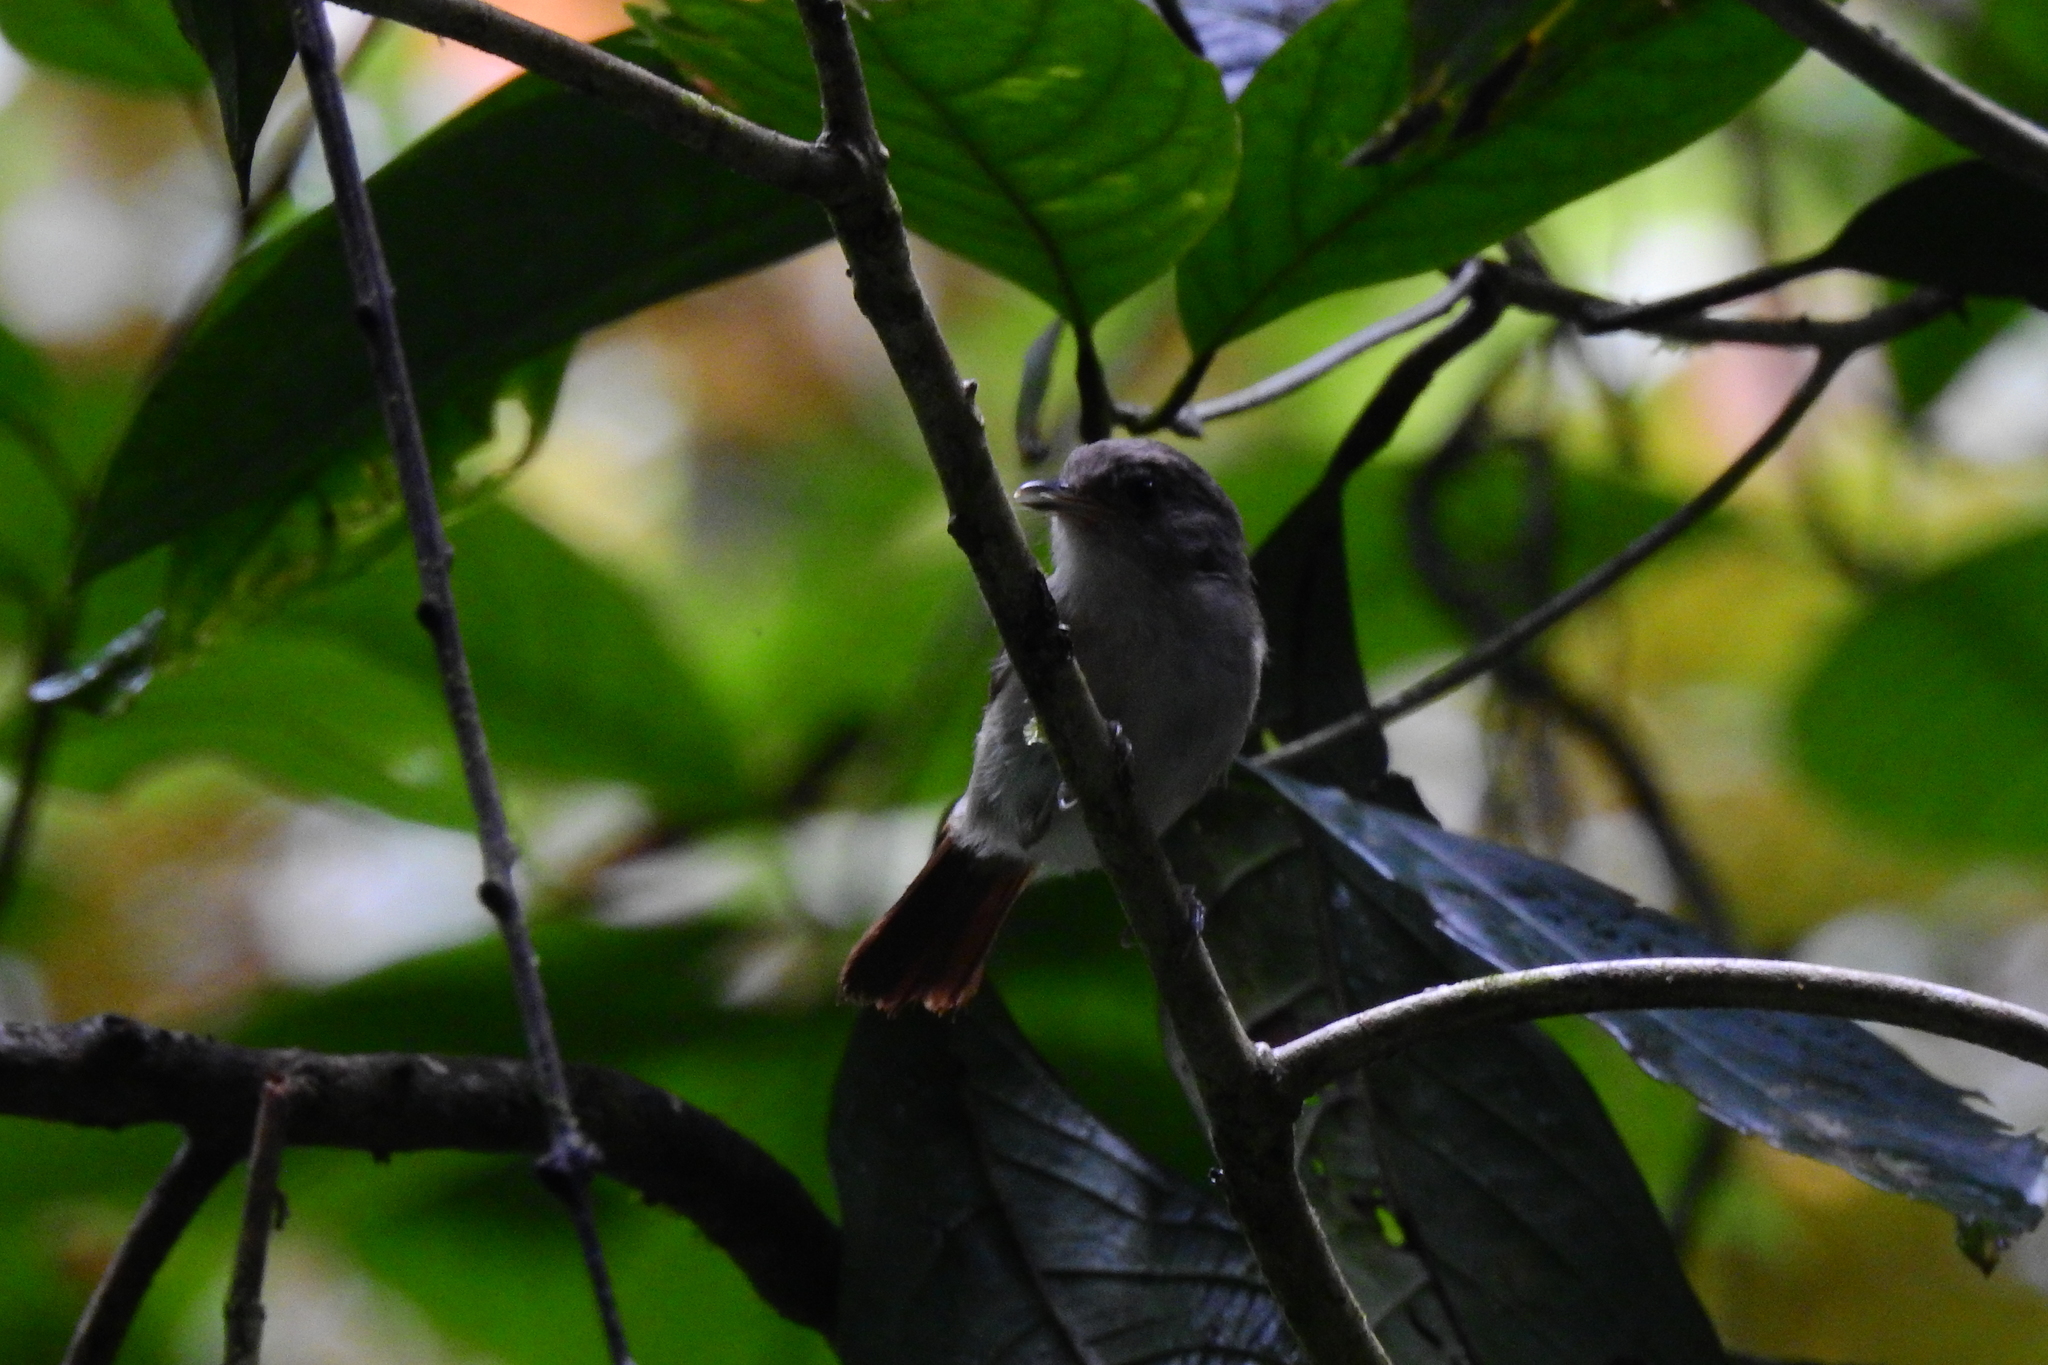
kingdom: Animalia
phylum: Chordata
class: Aves
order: Passeriformes
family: Pellorneidae
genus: Alcippe
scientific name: Alcippe brunneicauda
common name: Brown fulvetta
